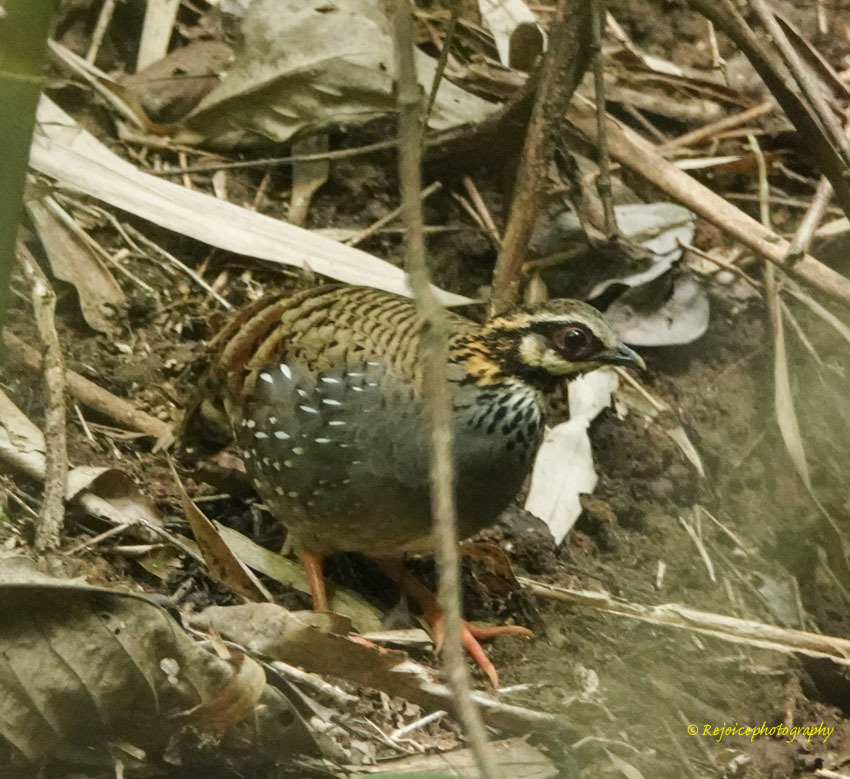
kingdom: Animalia
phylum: Chordata
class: Aves
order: Galliformes
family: Phasianidae
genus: Arborophila
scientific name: Arborophila atrogularis
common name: White-cheeked partridge
